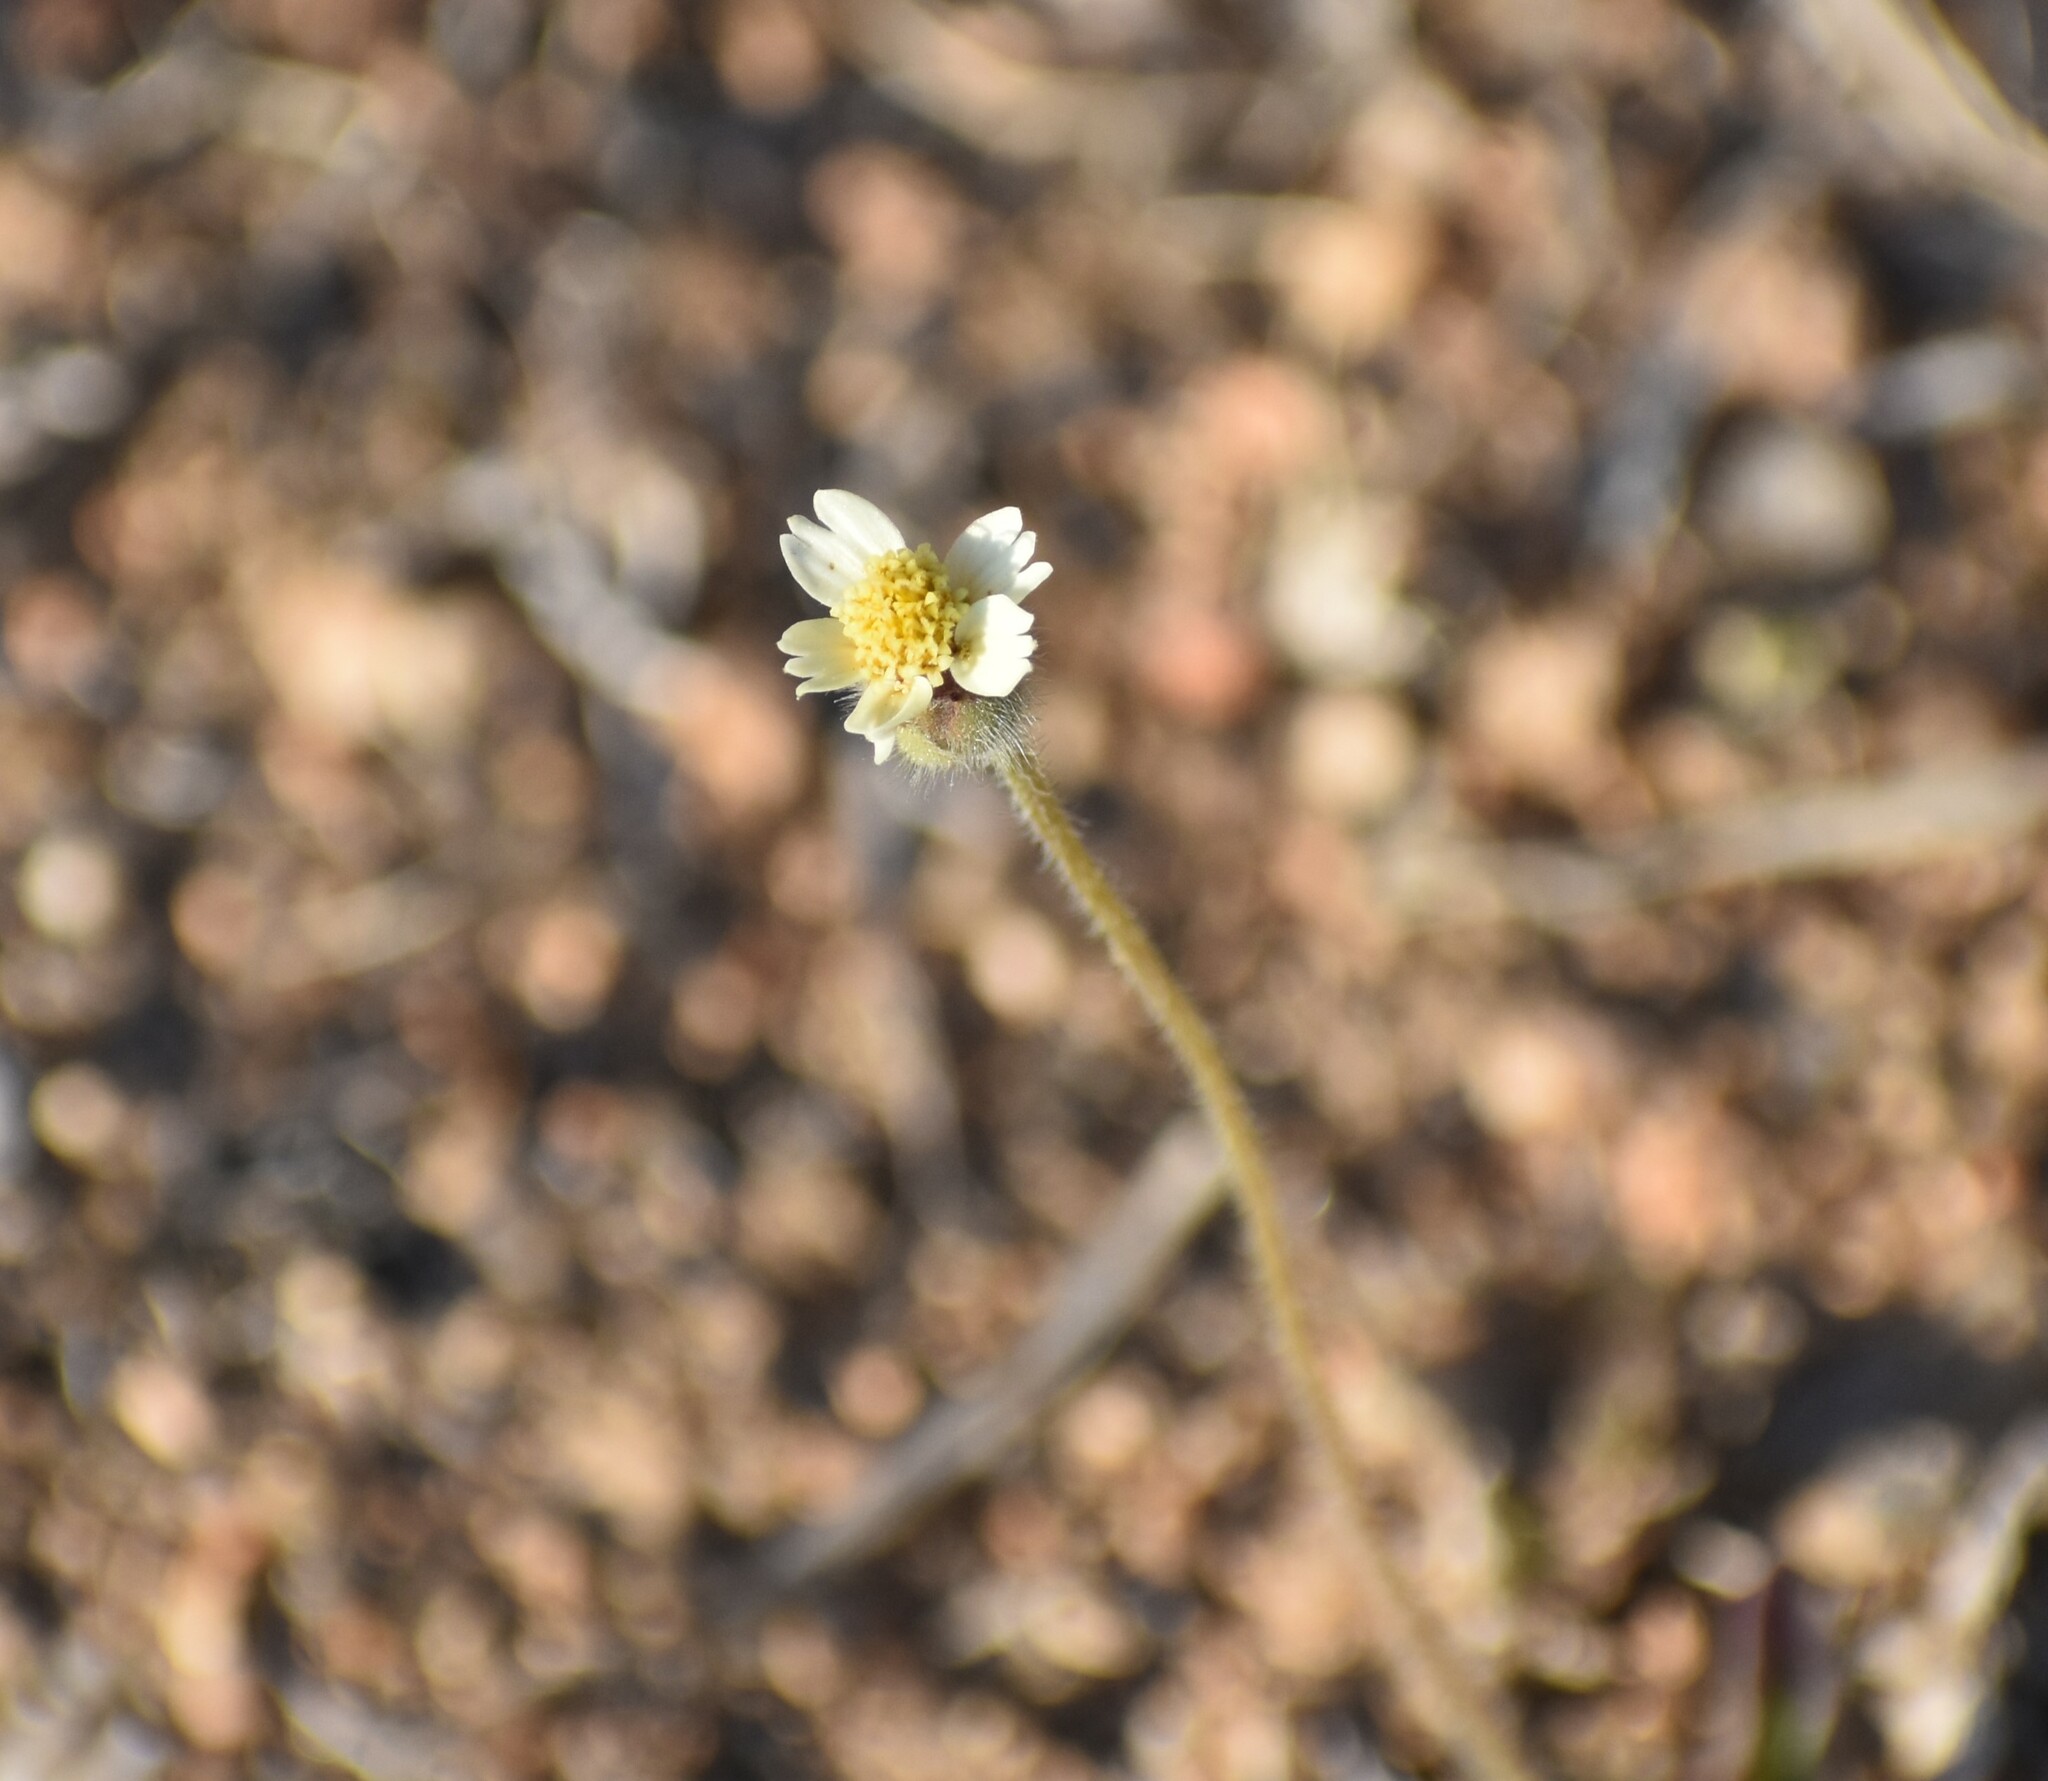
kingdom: Plantae
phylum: Tracheophyta
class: Magnoliopsida
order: Asterales
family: Asteraceae
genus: Tridax
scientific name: Tridax procumbens
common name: Coatbuttons
